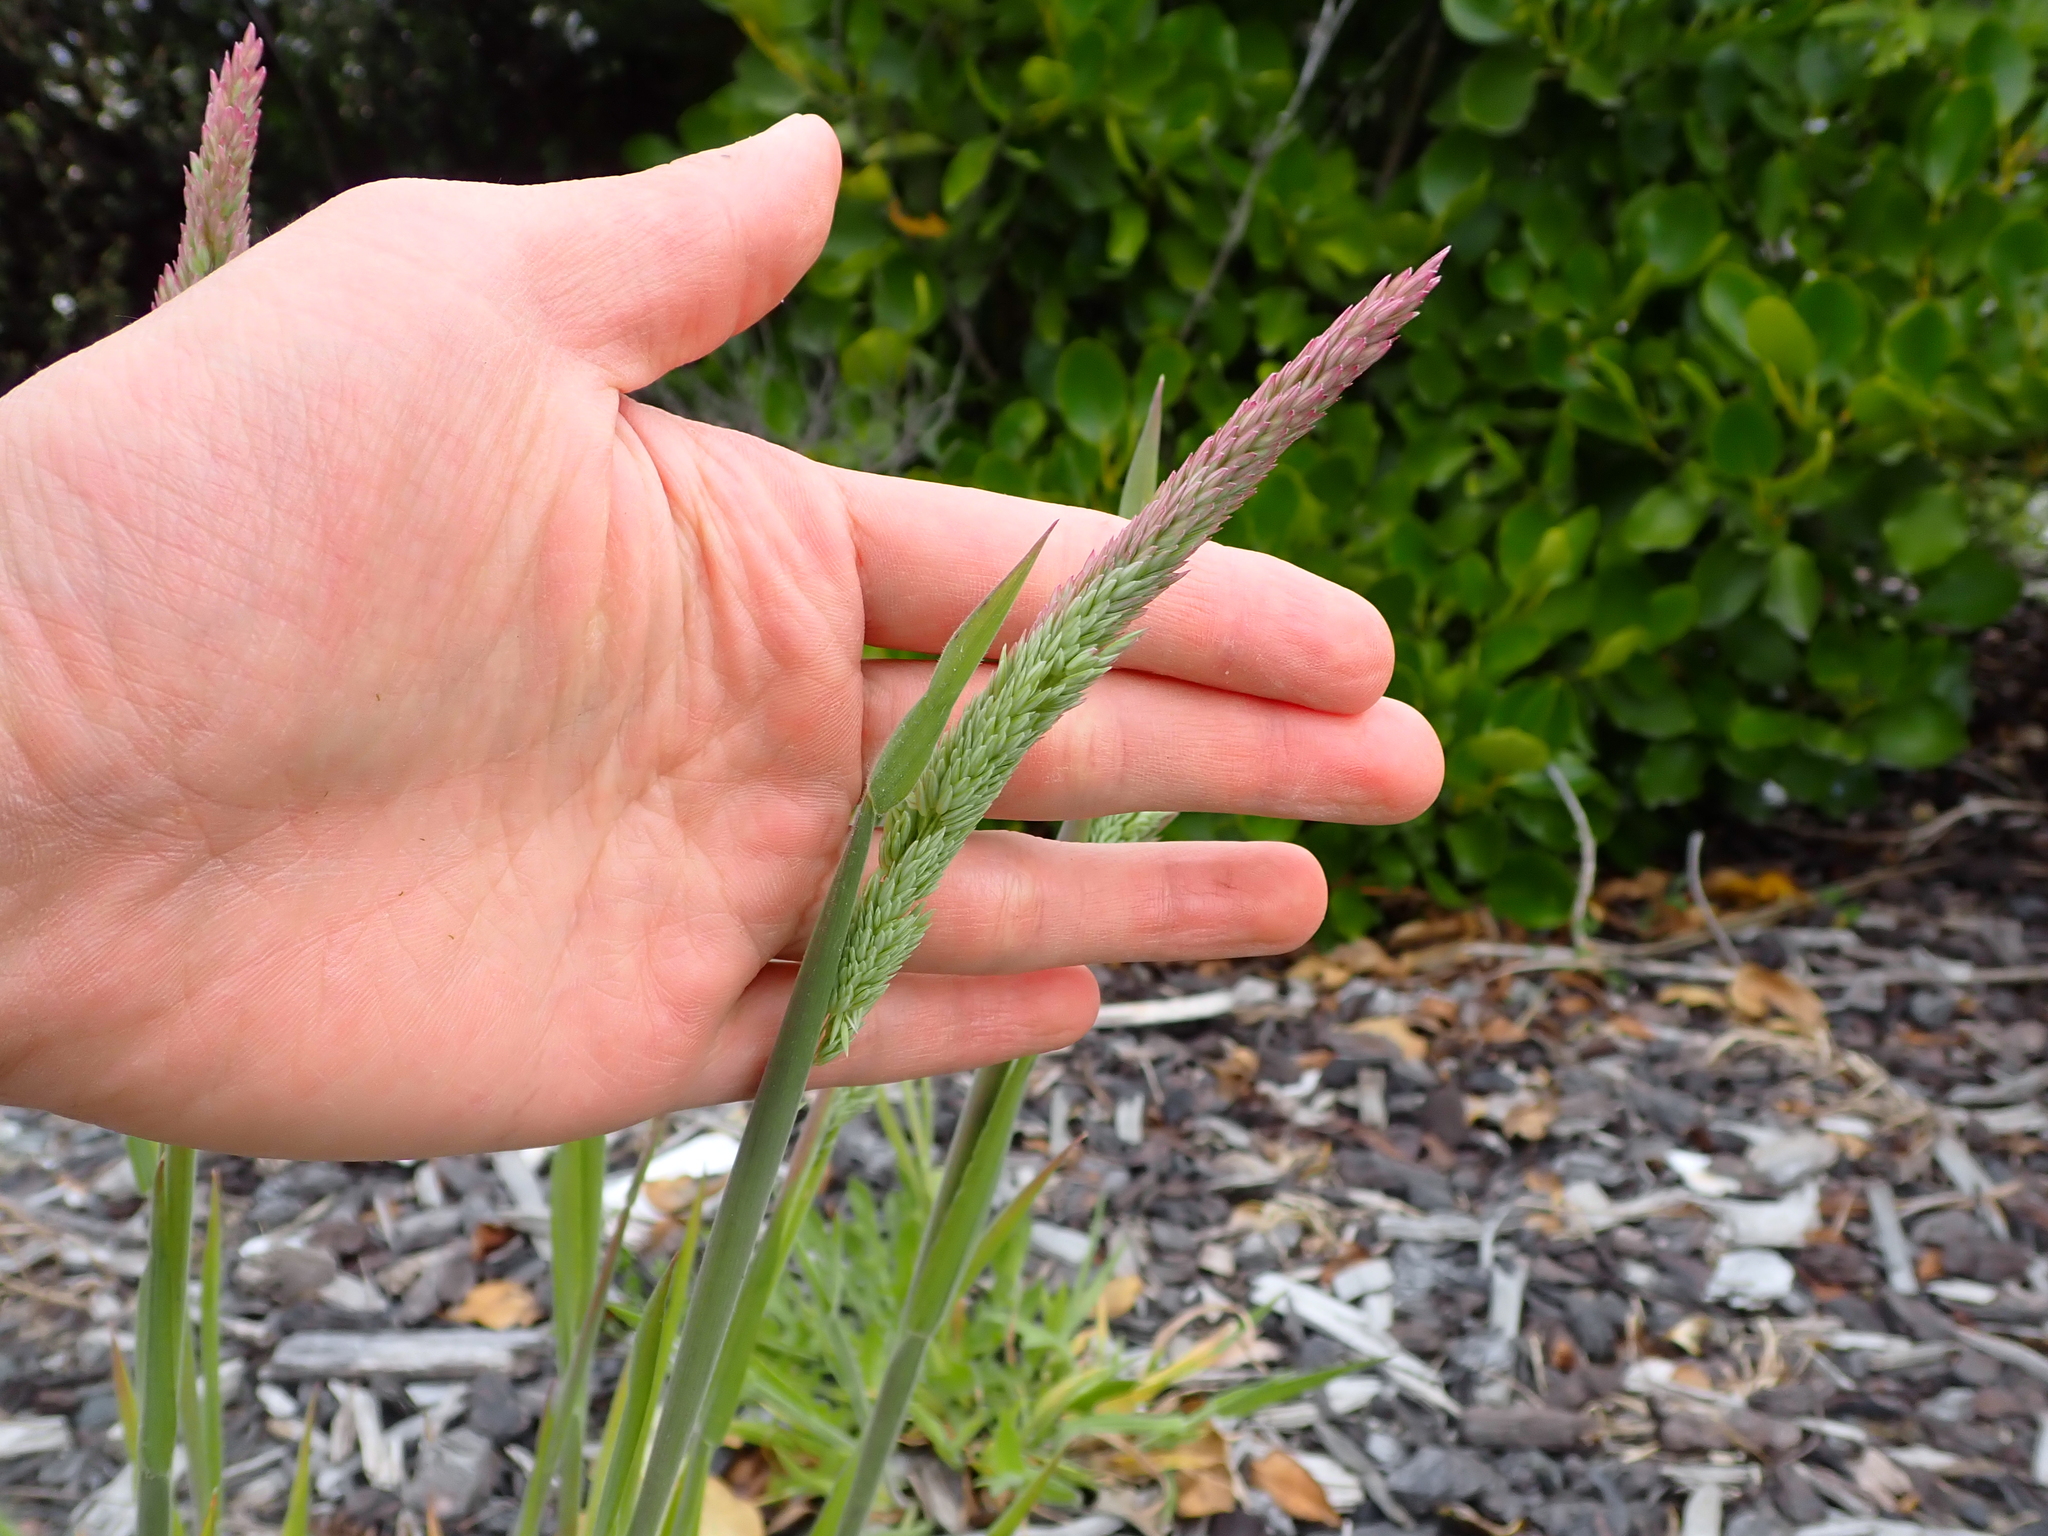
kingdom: Plantae
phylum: Tracheophyta
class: Liliopsida
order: Poales
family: Poaceae
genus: Holcus
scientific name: Holcus lanatus
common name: Yorkshire-fog
